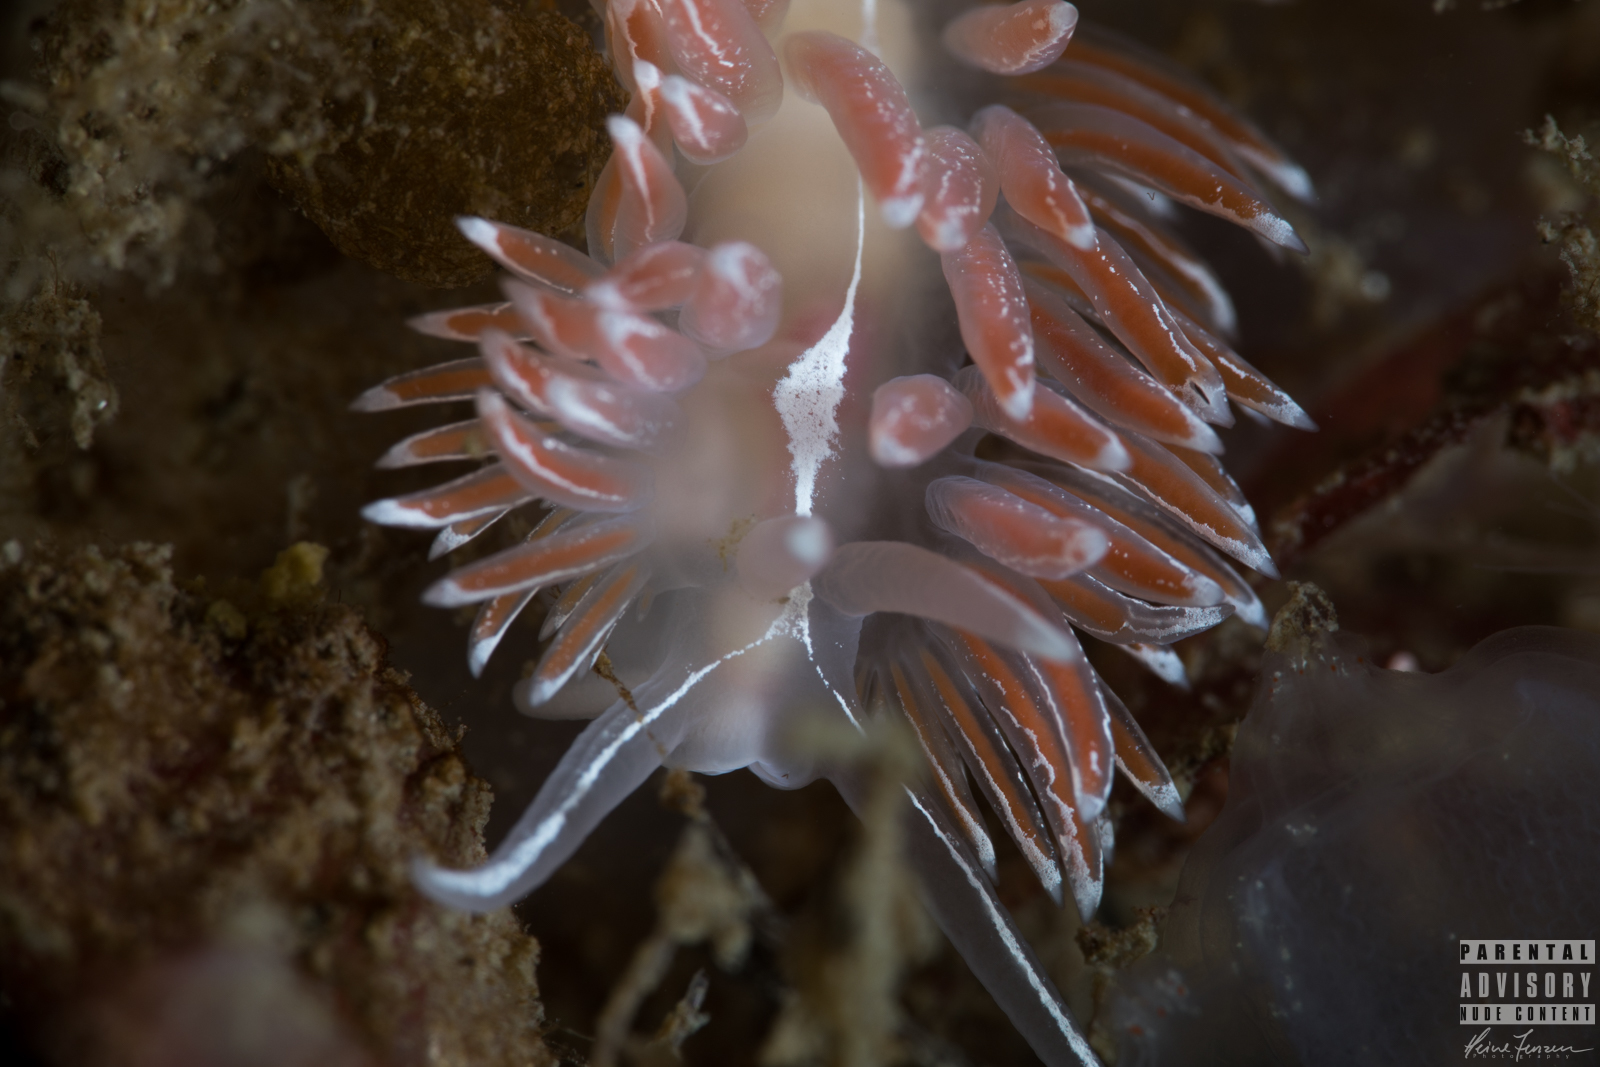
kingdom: Animalia
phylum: Mollusca
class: Gastropoda
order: Nudibranchia
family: Coryphellidae
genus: Coryphella
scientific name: Coryphella lineata
